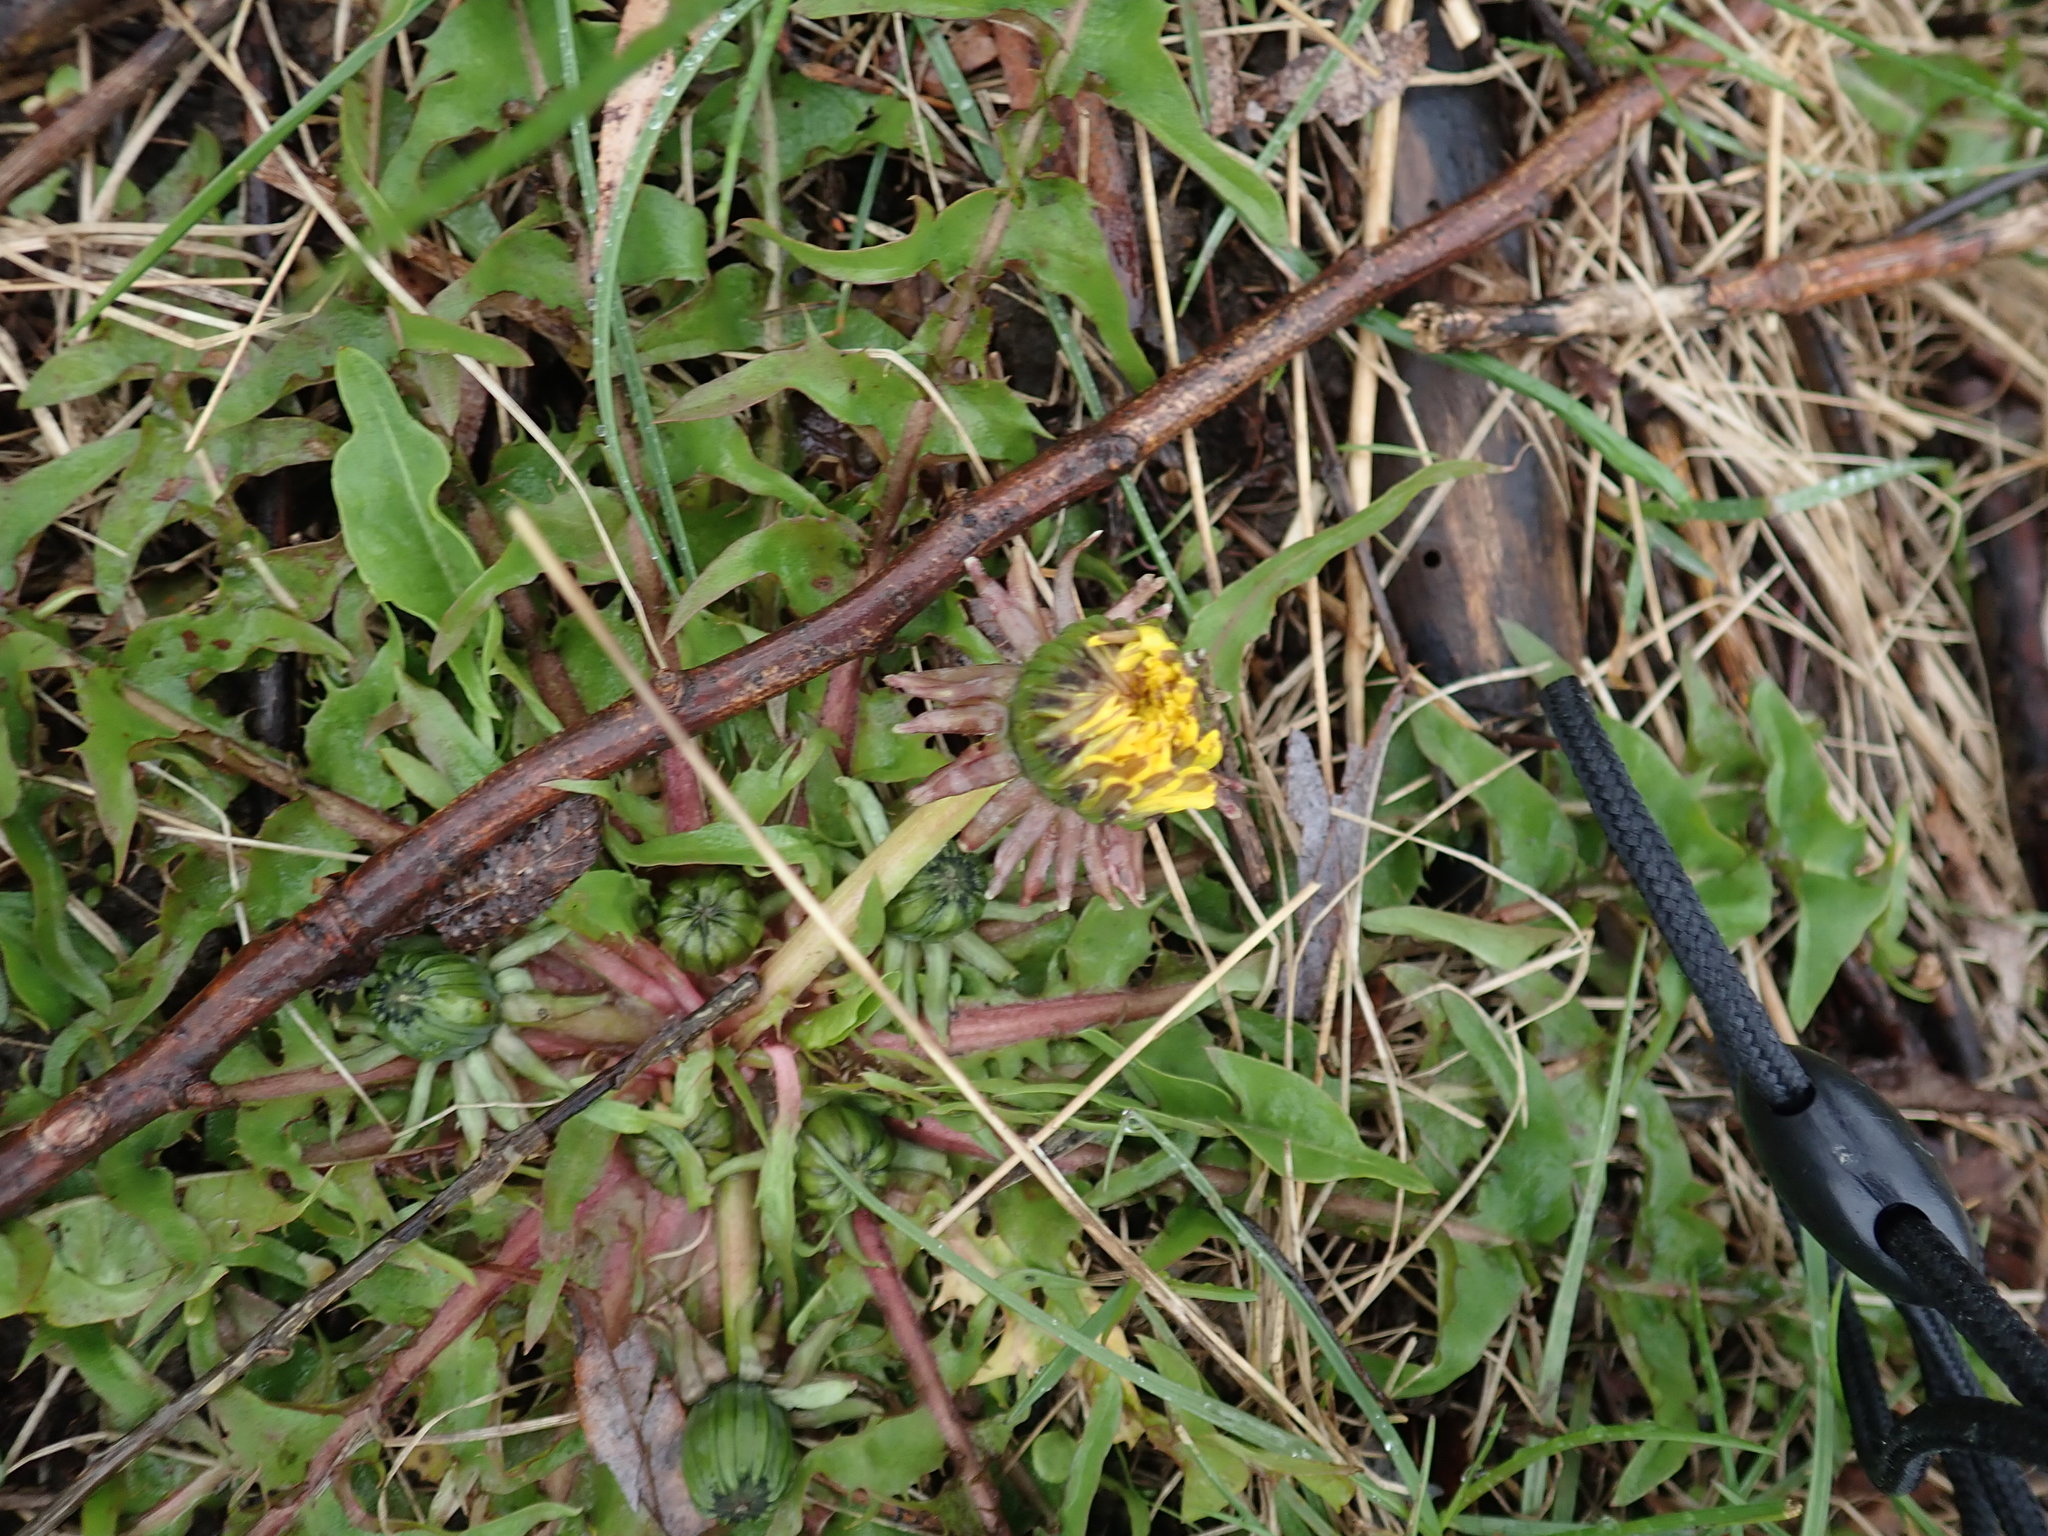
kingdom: Plantae
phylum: Tracheophyta
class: Magnoliopsida
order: Asterales
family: Asteraceae
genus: Taraxacum
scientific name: Taraxacum officinale
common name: Common dandelion
